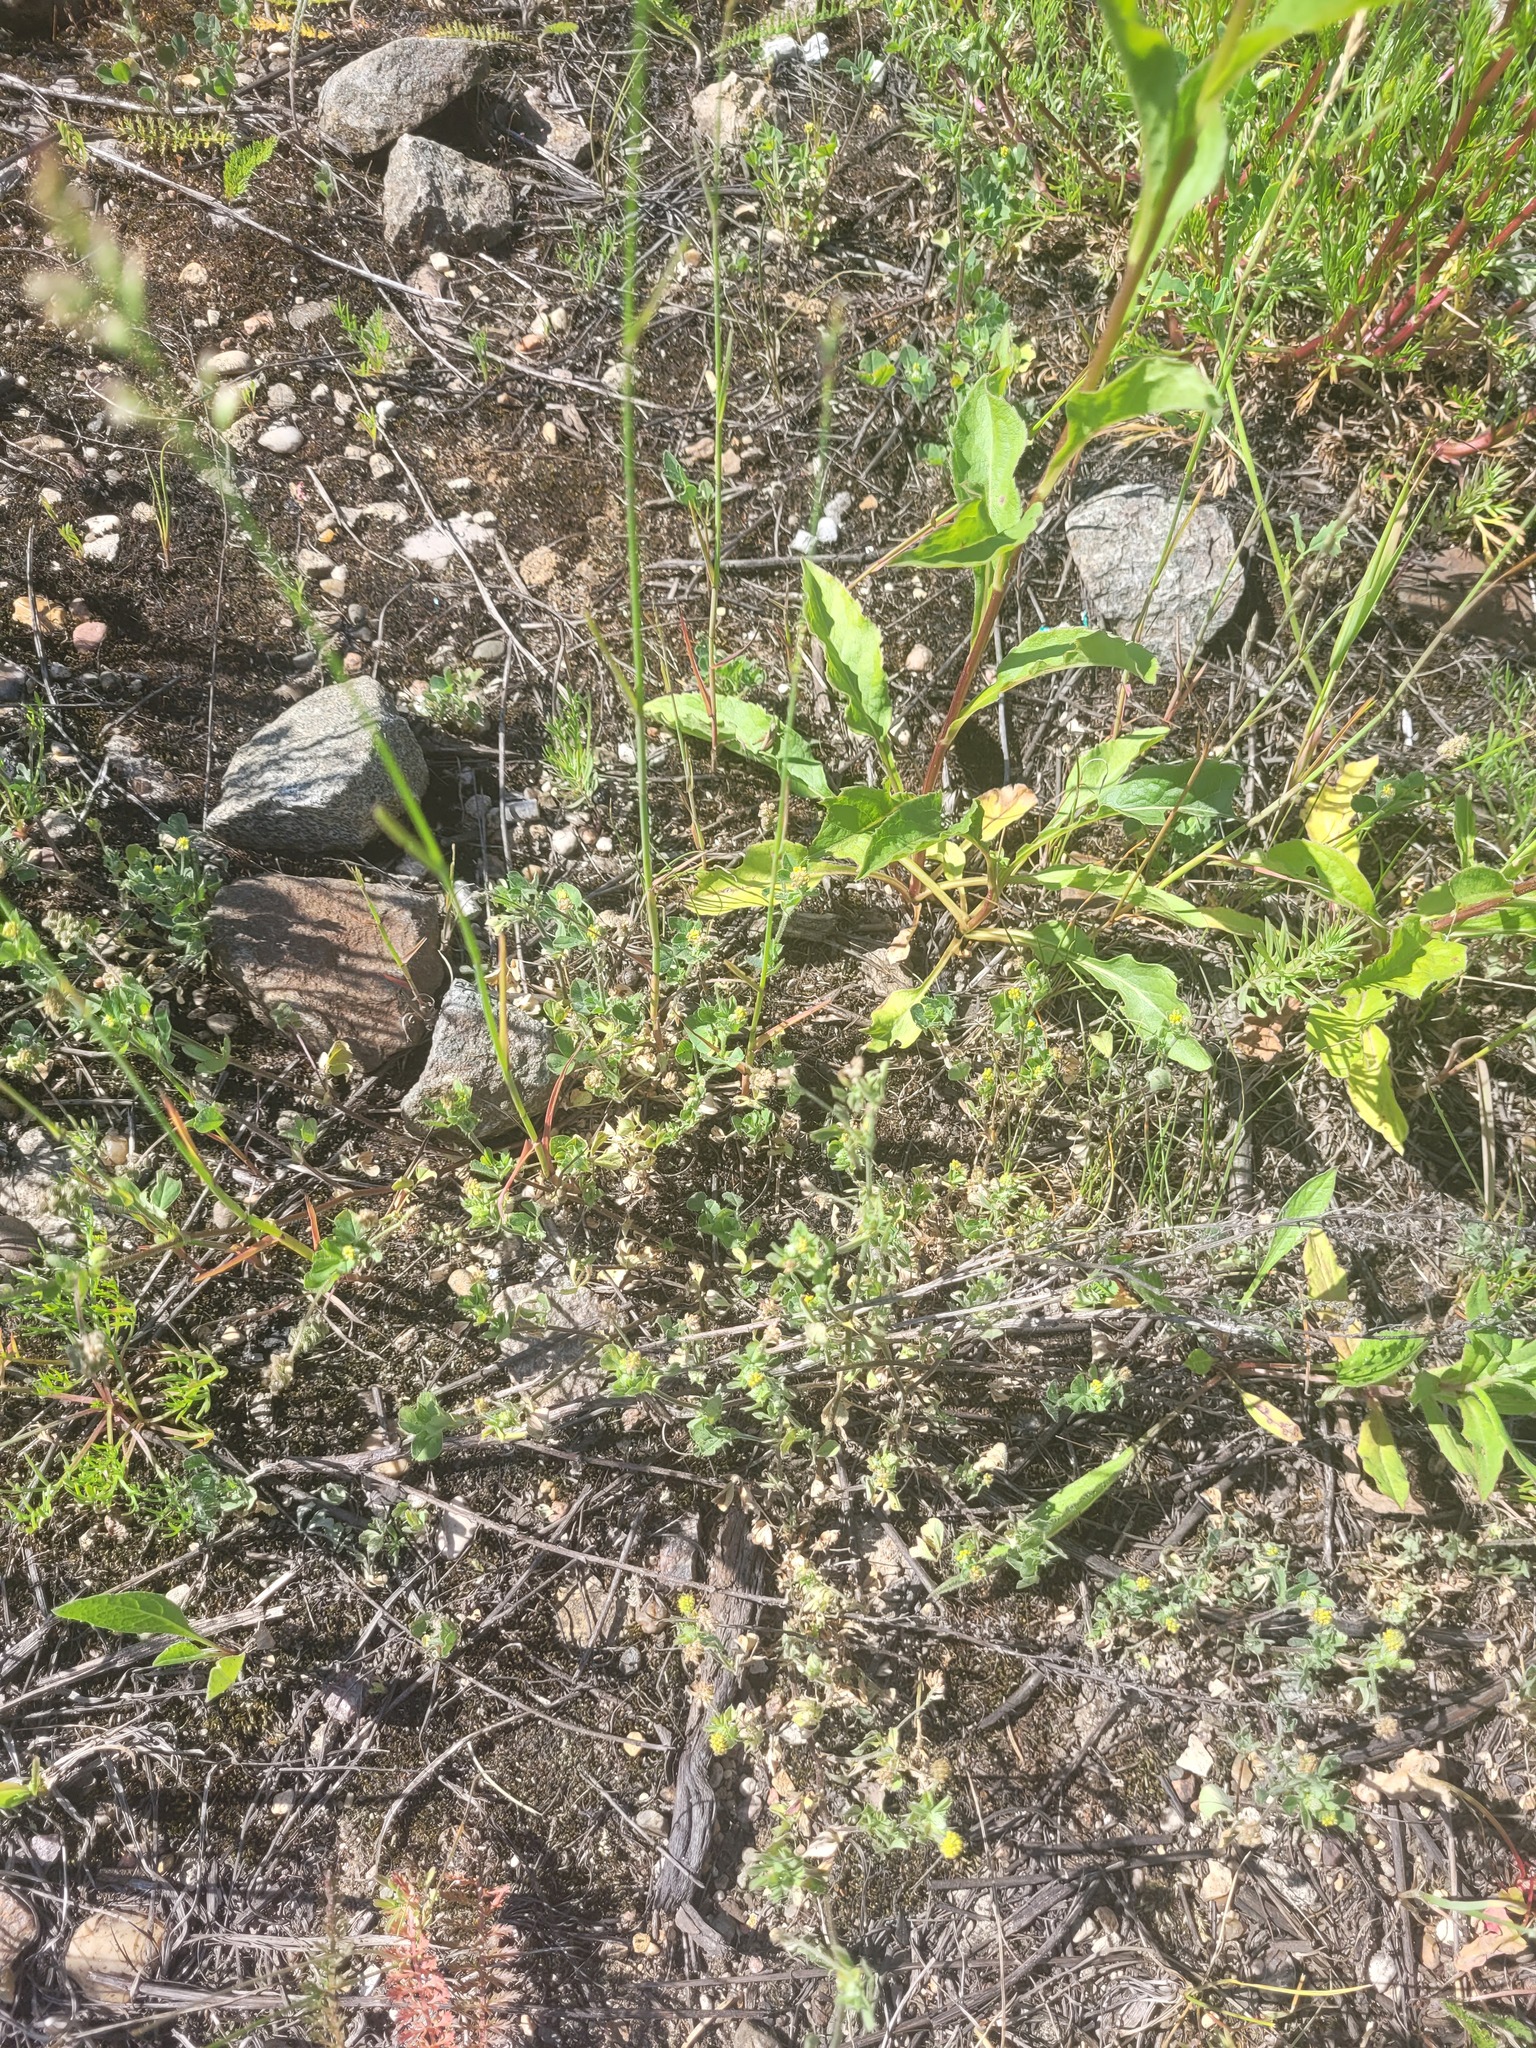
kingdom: Plantae
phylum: Tracheophyta
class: Magnoliopsida
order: Fabales
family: Fabaceae
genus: Medicago
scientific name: Medicago lupulina
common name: Black medick
